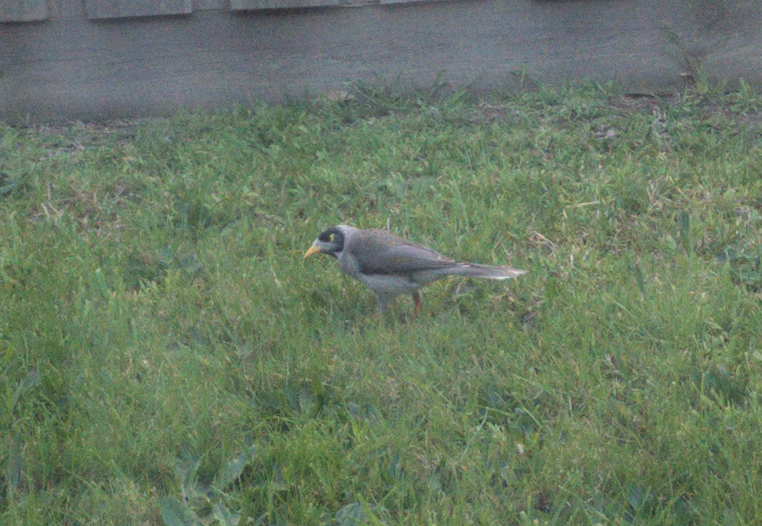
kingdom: Animalia
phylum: Chordata
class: Aves
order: Passeriformes
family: Meliphagidae
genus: Manorina
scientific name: Manorina melanocephala
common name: Noisy miner
